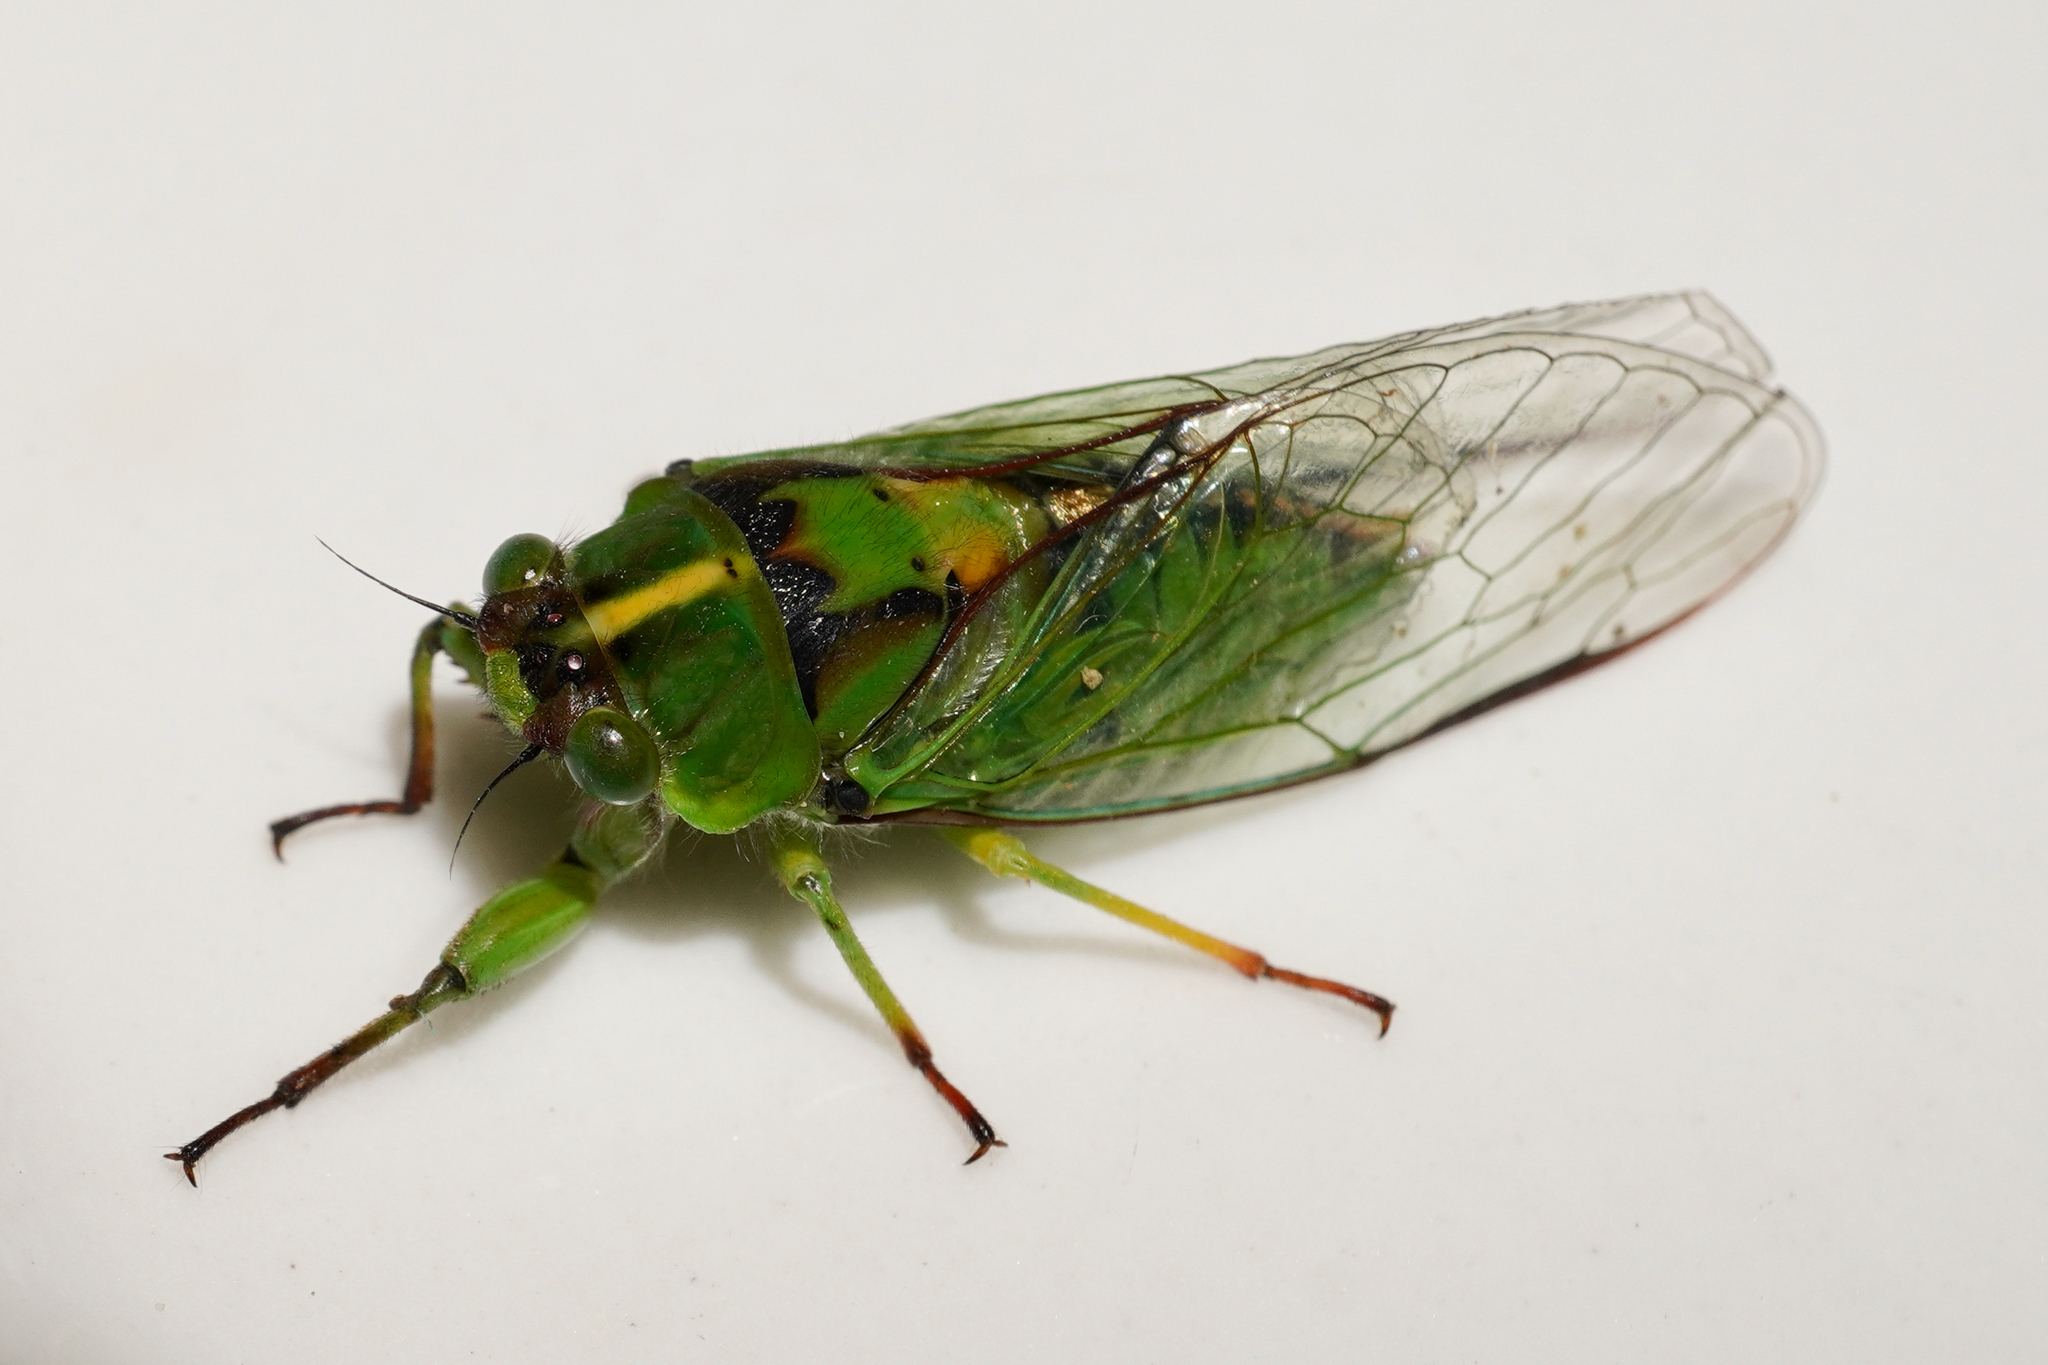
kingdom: Animalia
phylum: Arthropoda
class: Insecta
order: Hemiptera
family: Cicadidae
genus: Kikihia
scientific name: Kikihia subalpina
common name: Chathams cicada
